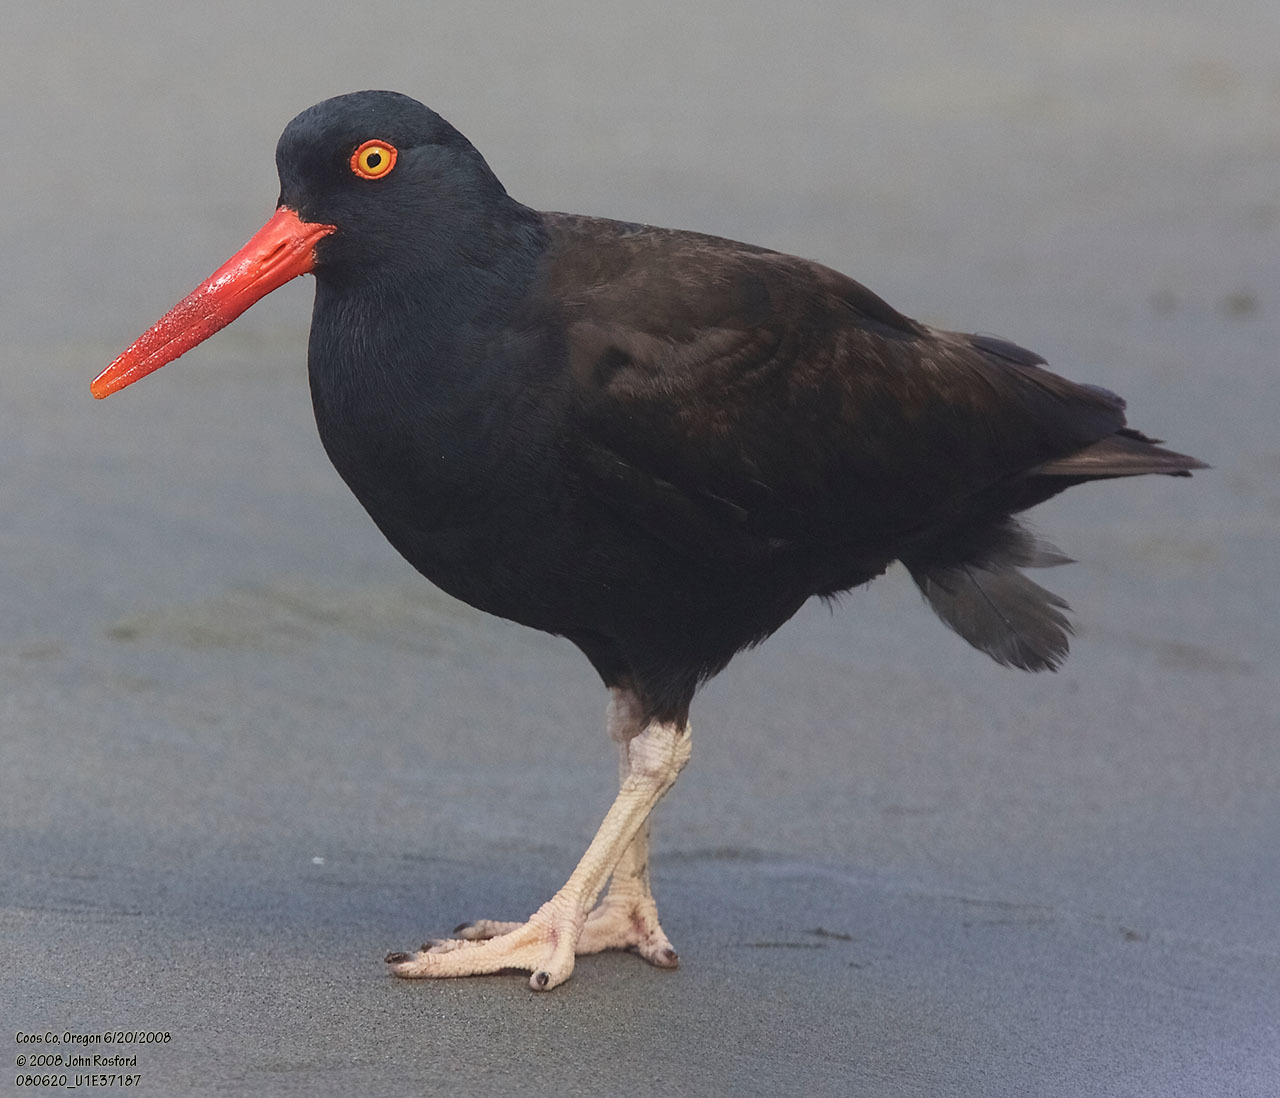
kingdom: Animalia
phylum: Chordata
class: Aves
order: Charadriiformes
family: Haematopodidae
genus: Haematopus
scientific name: Haematopus bachmani
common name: Black oystercatcher
